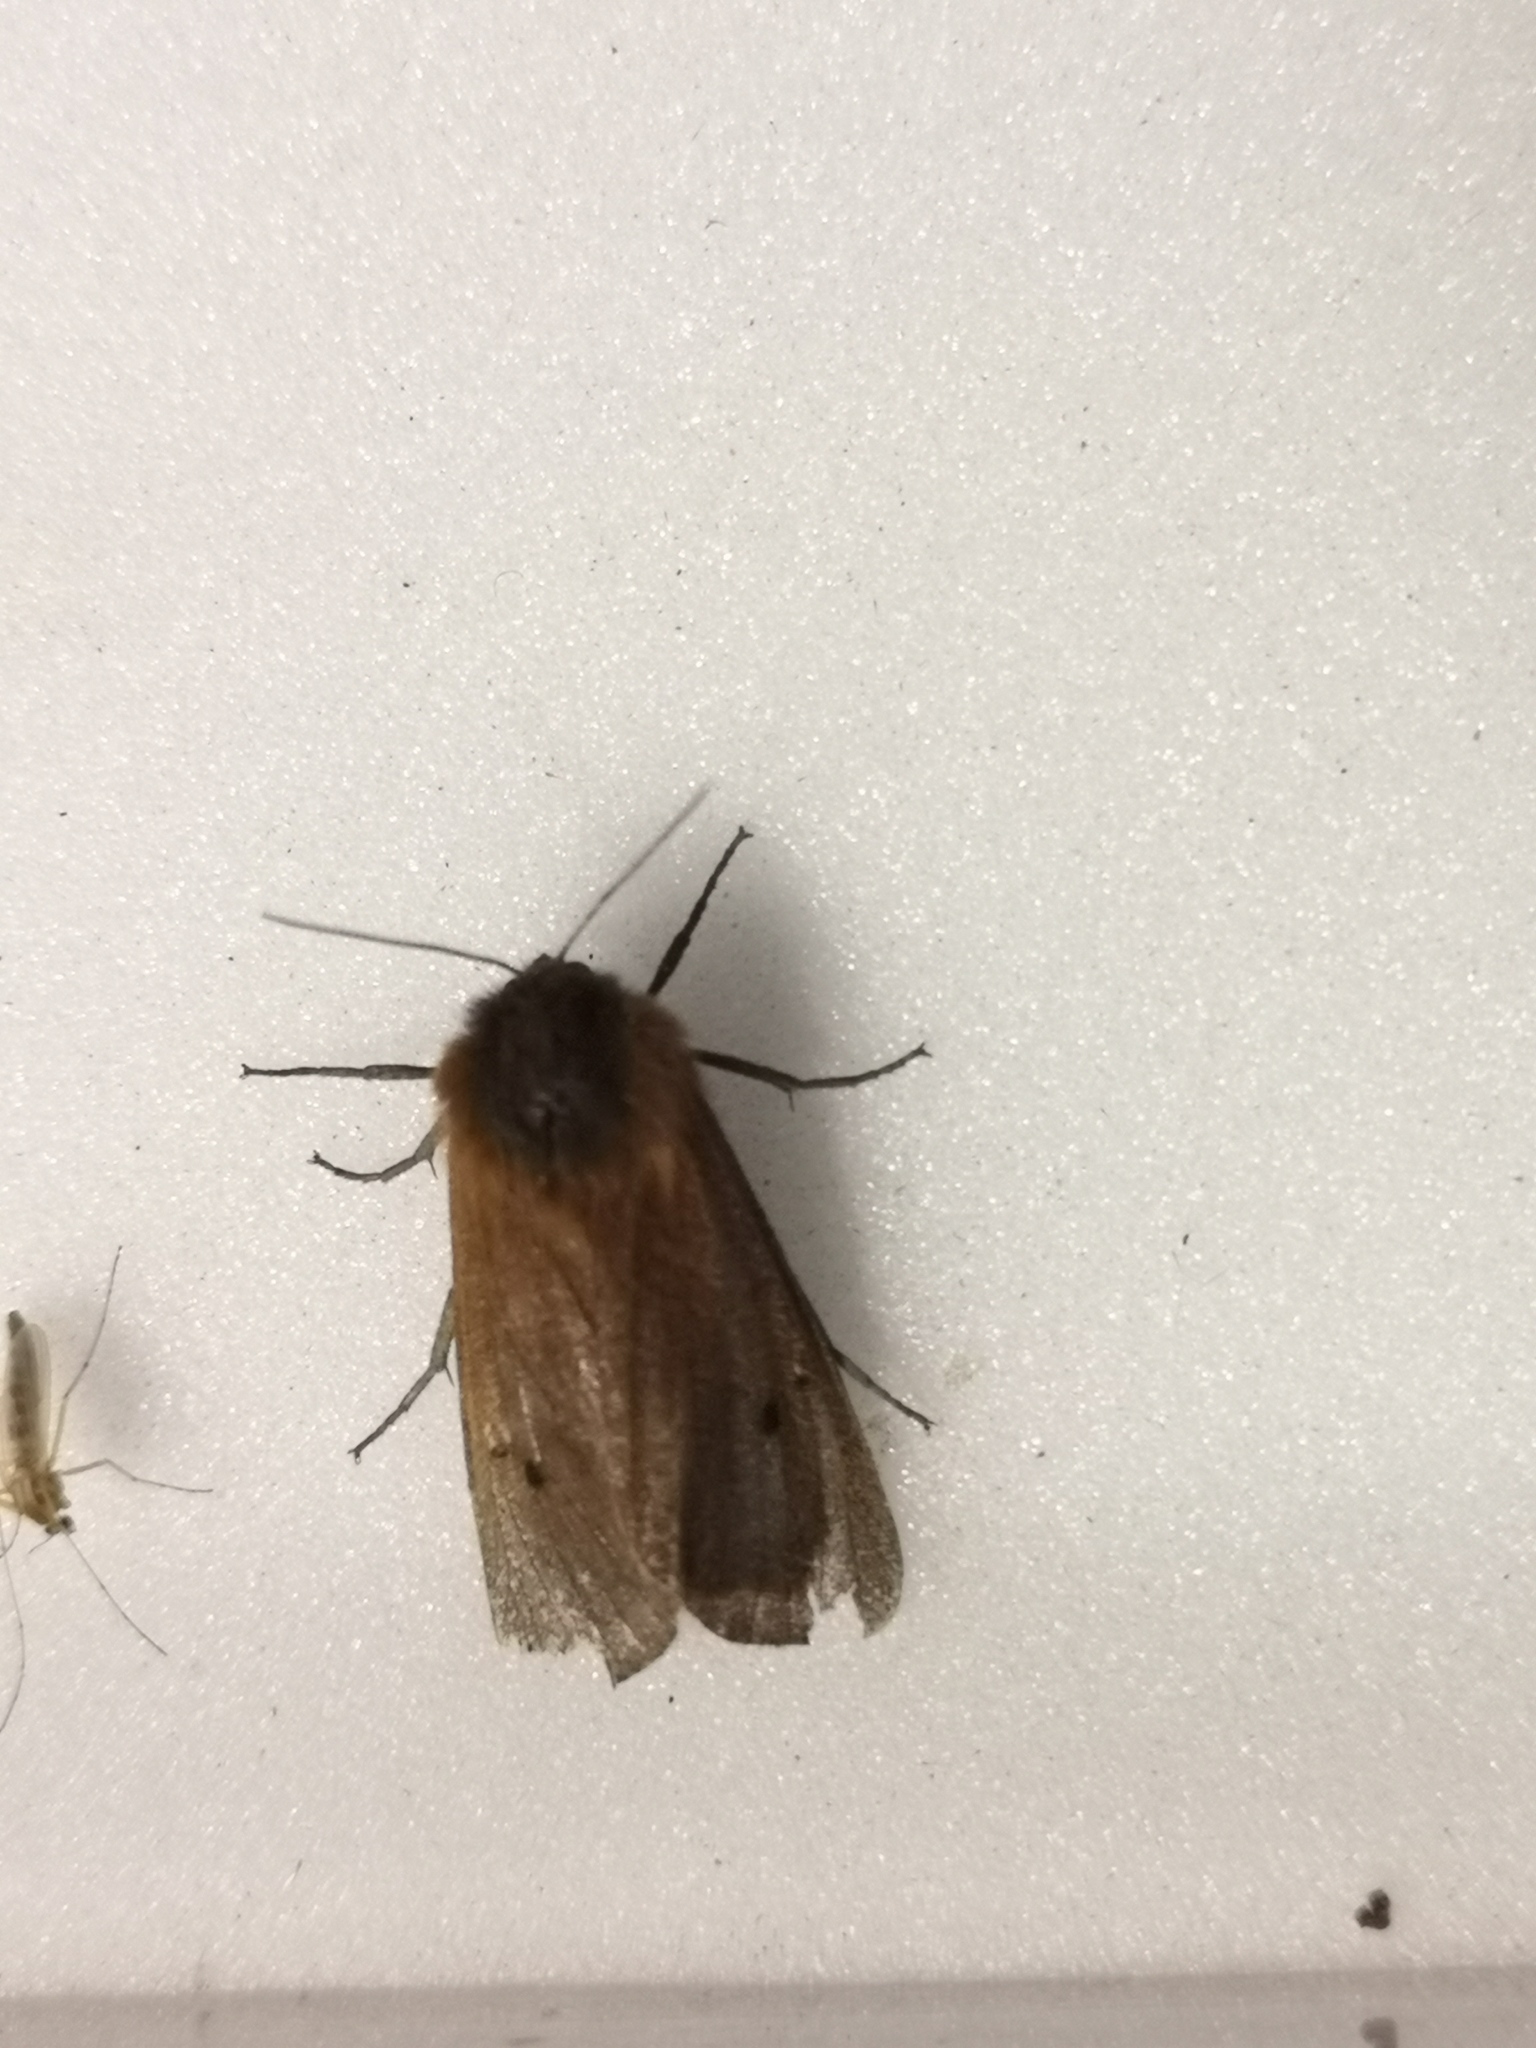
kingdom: Animalia
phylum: Arthropoda
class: Insecta
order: Lepidoptera
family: Erebidae
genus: Phragmatobia
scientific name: Phragmatobia fuliginosa
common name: Ruby tiger
